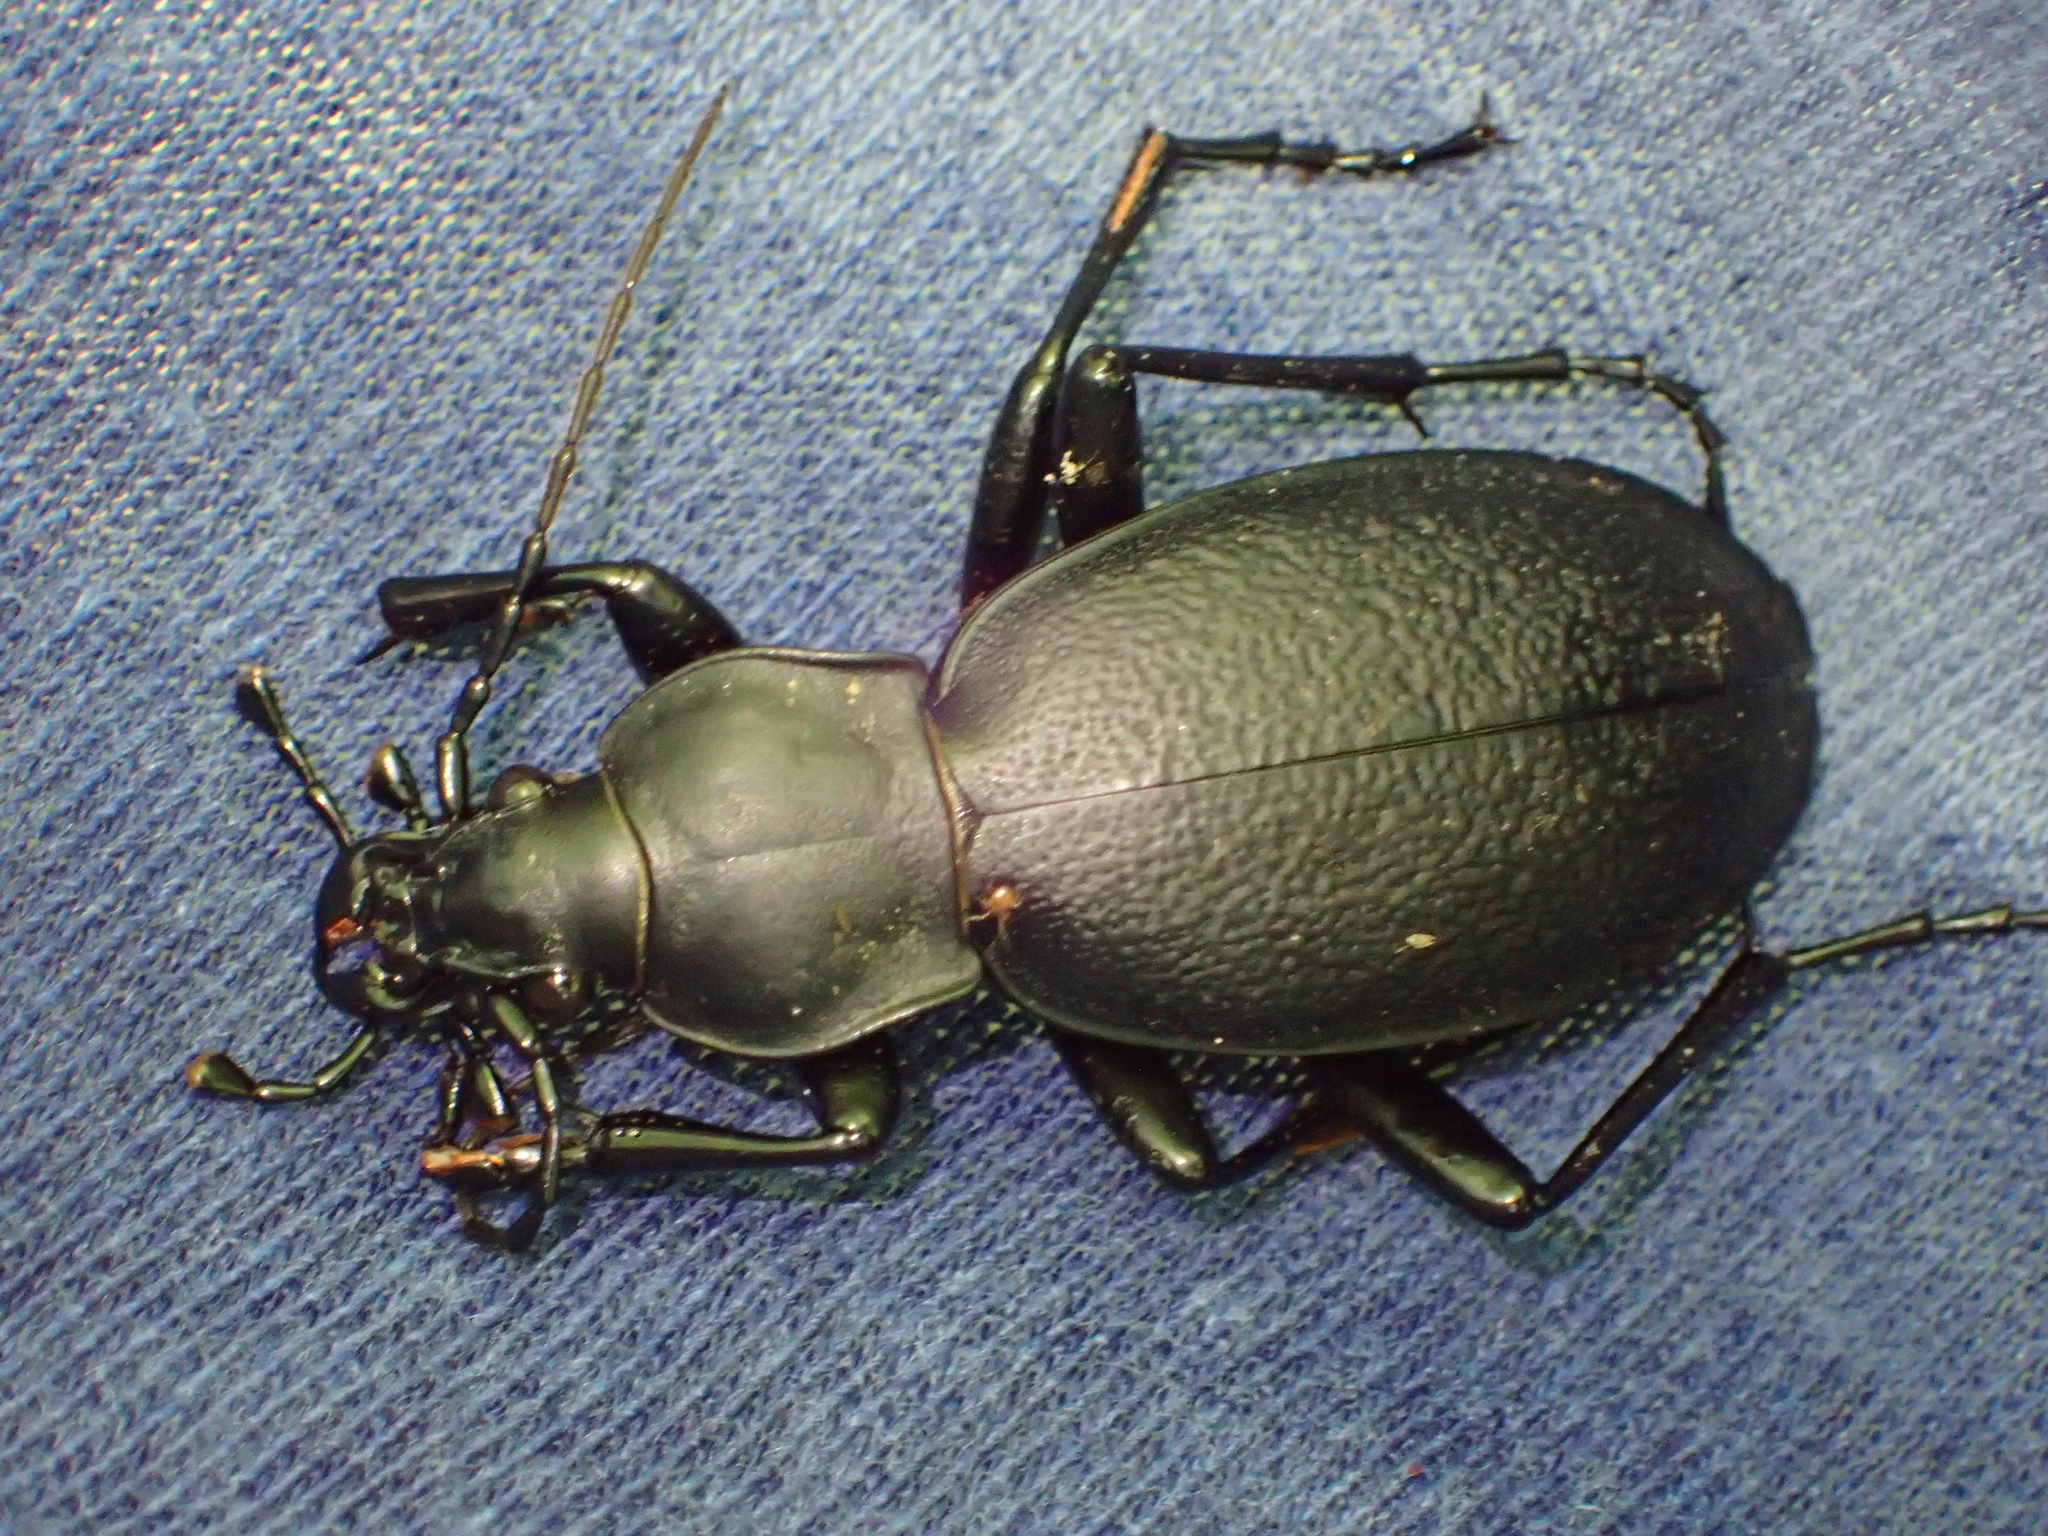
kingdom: Animalia
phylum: Arthropoda
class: Insecta
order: Coleoptera
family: Carabidae
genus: Carabus
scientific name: Carabus coriaceus
